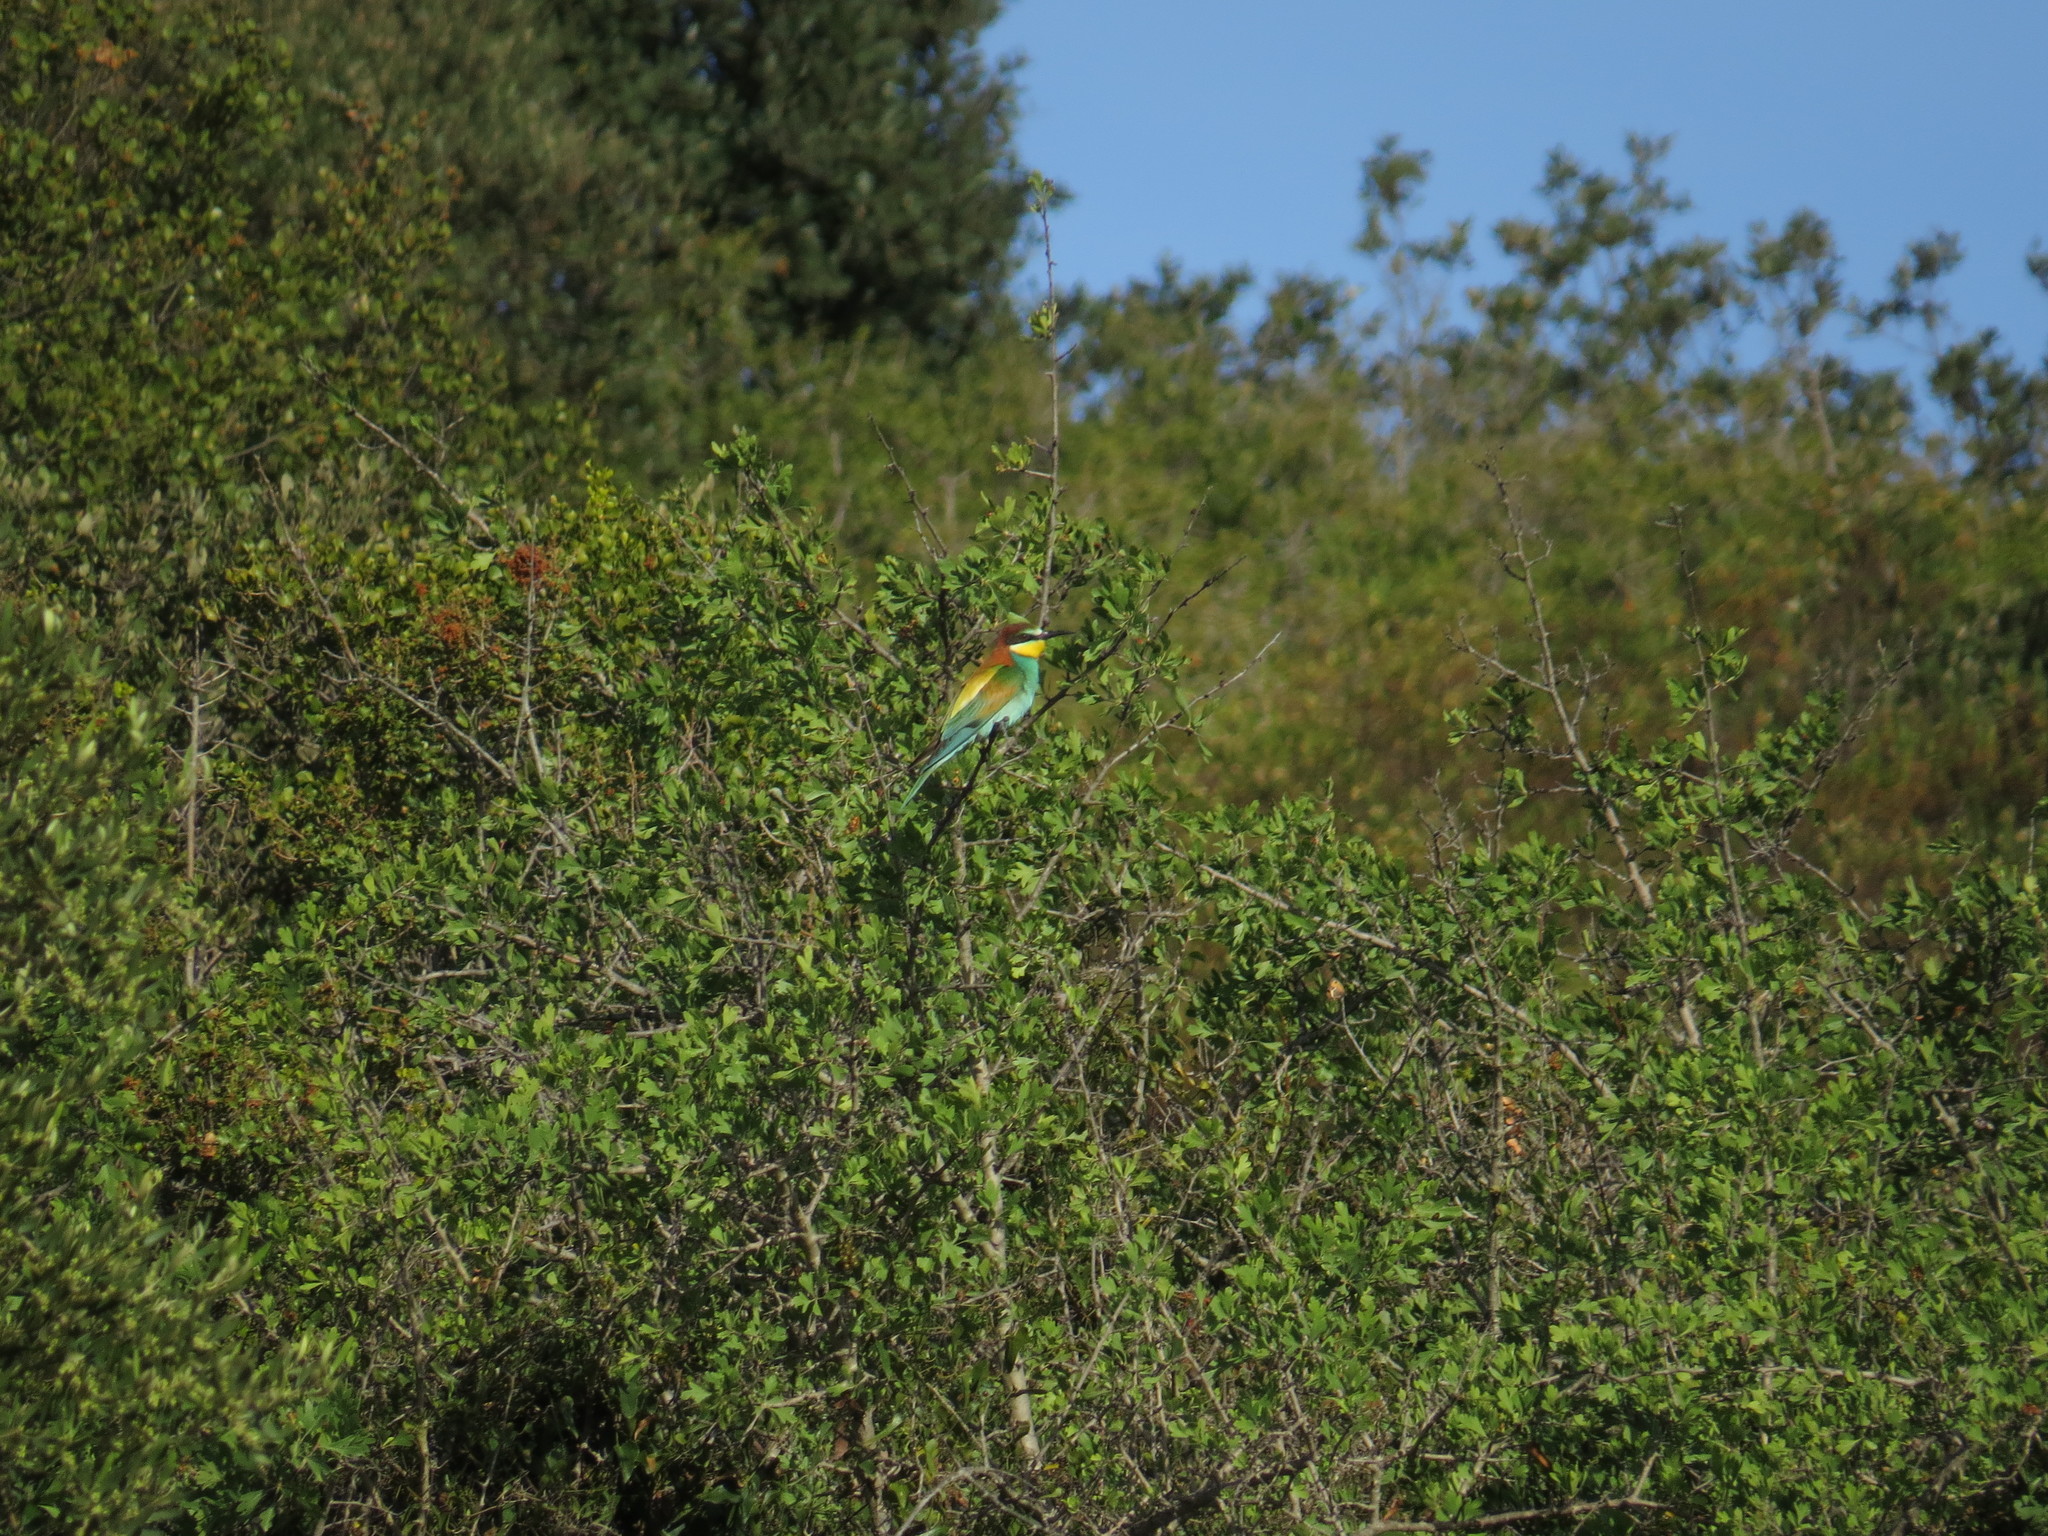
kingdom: Animalia
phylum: Chordata
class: Aves
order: Coraciiformes
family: Meropidae
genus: Merops
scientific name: Merops apiaster
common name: European bee-eater
